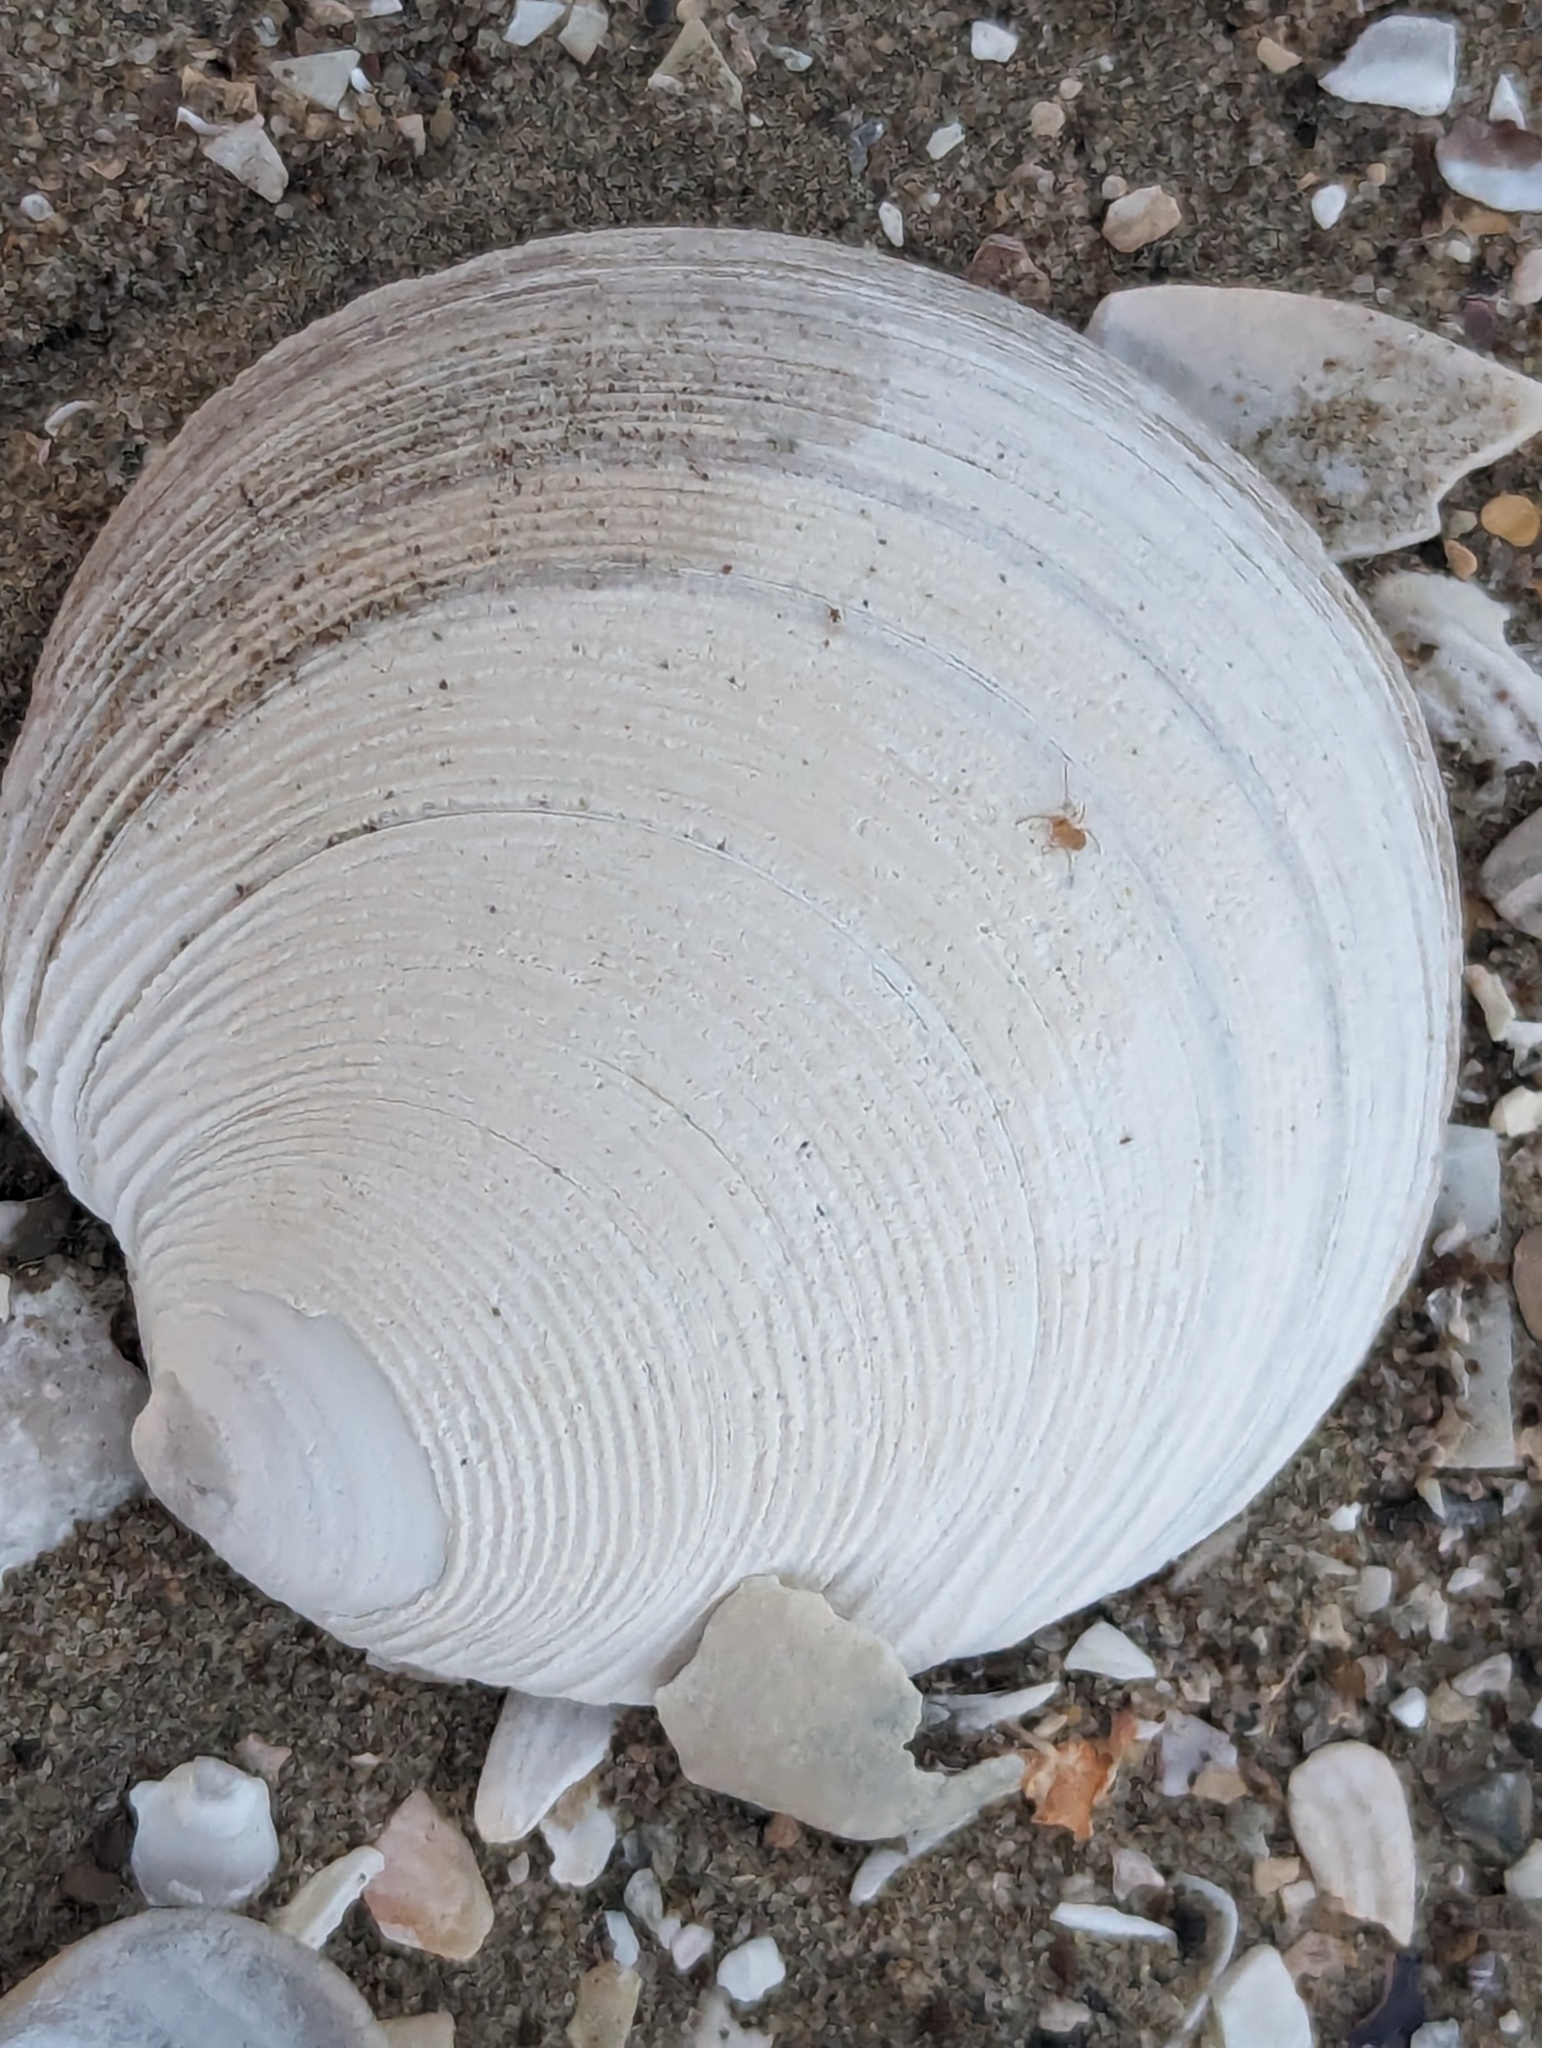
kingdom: Animalia
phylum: Mollusca
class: Bivalvia
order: Venerida
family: Veneridae
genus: Dosinia
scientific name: Dosinia anus
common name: Old-woman dosinia
